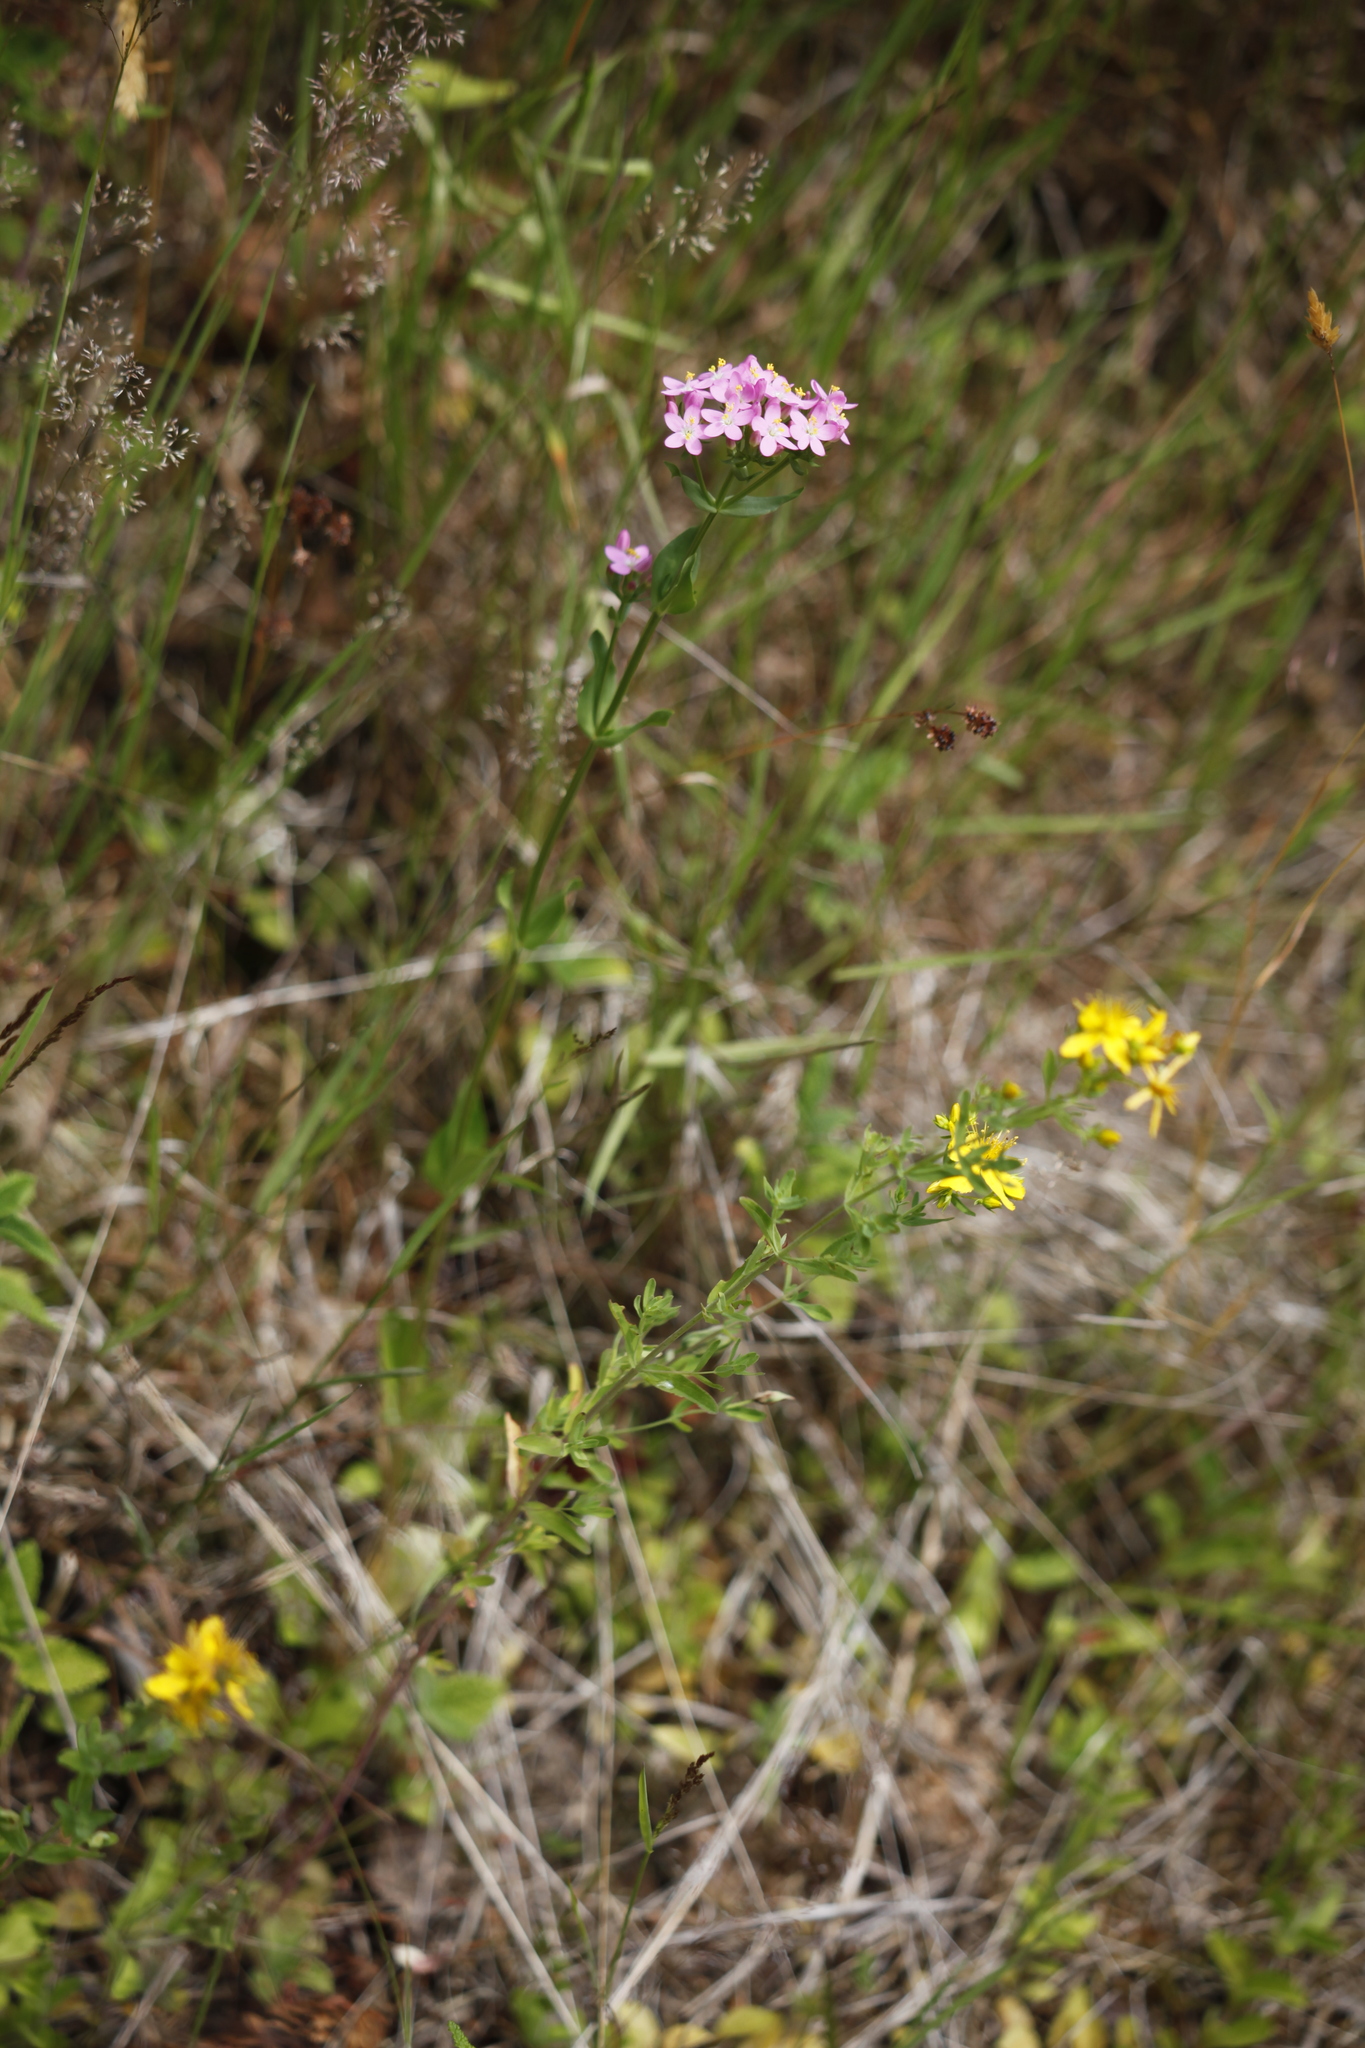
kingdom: Plantae
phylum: Tracheophyta
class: Magnoliopsida
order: Gentianales
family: Gentianaceae
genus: Centaurium
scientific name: Centaurium erythraea
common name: Common centaury
